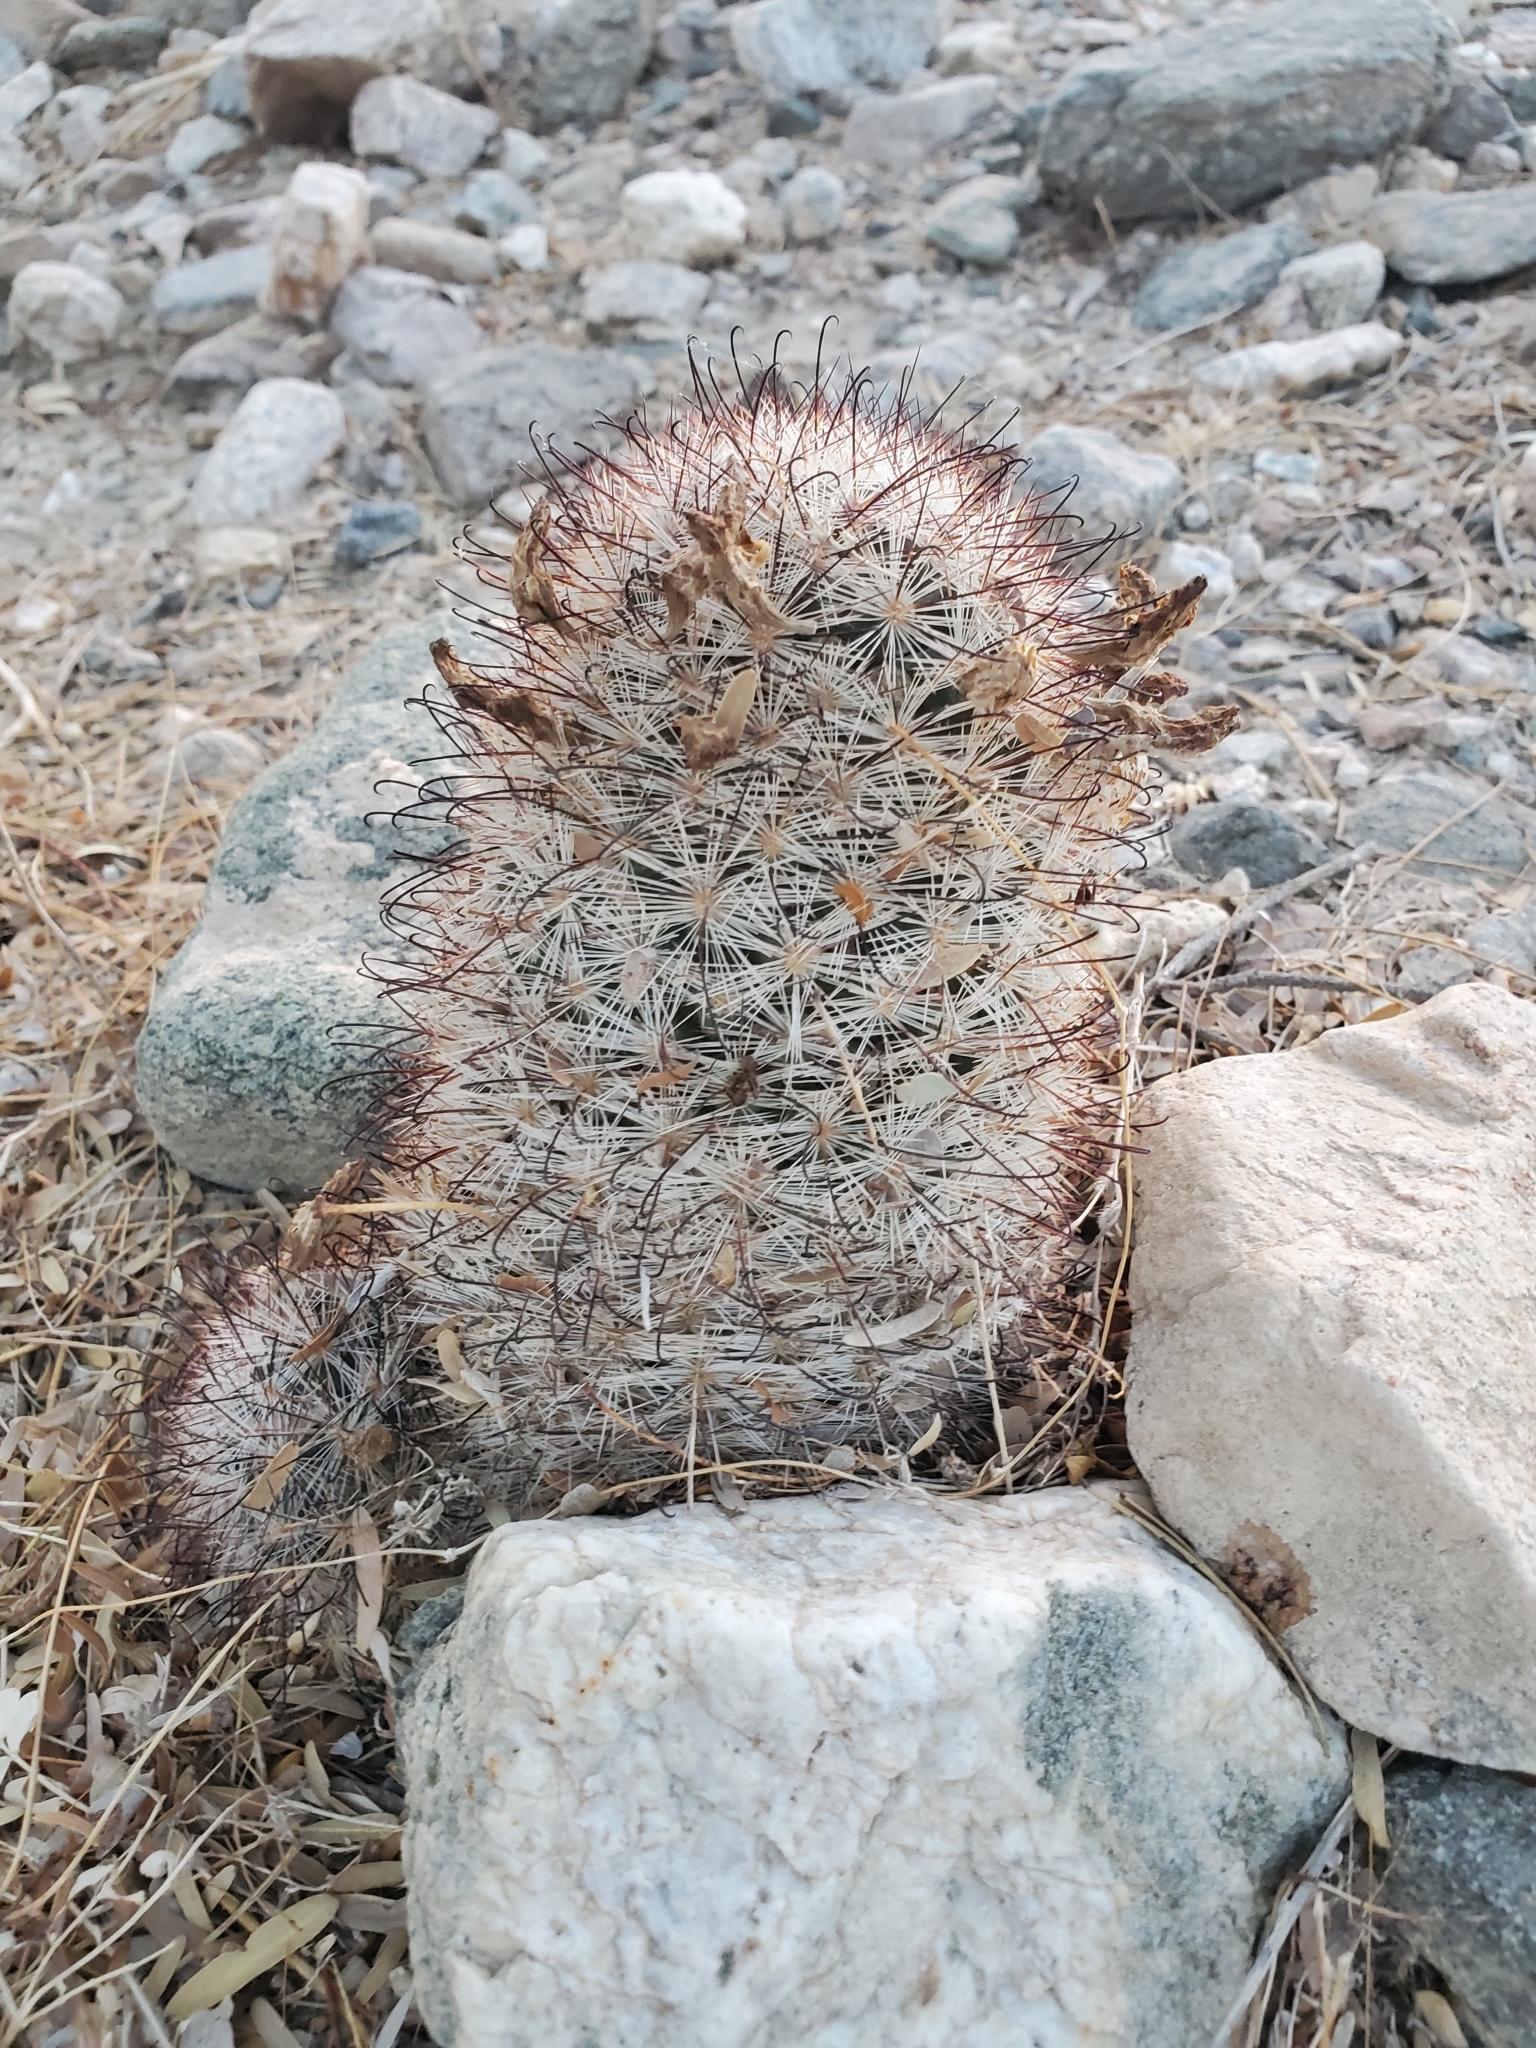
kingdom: Plantae
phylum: Tracheophyta
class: Magnoliopsida
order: Caryophyllales
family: Cactaceae
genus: Cochemiea
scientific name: Cochemiea tetrancistra
